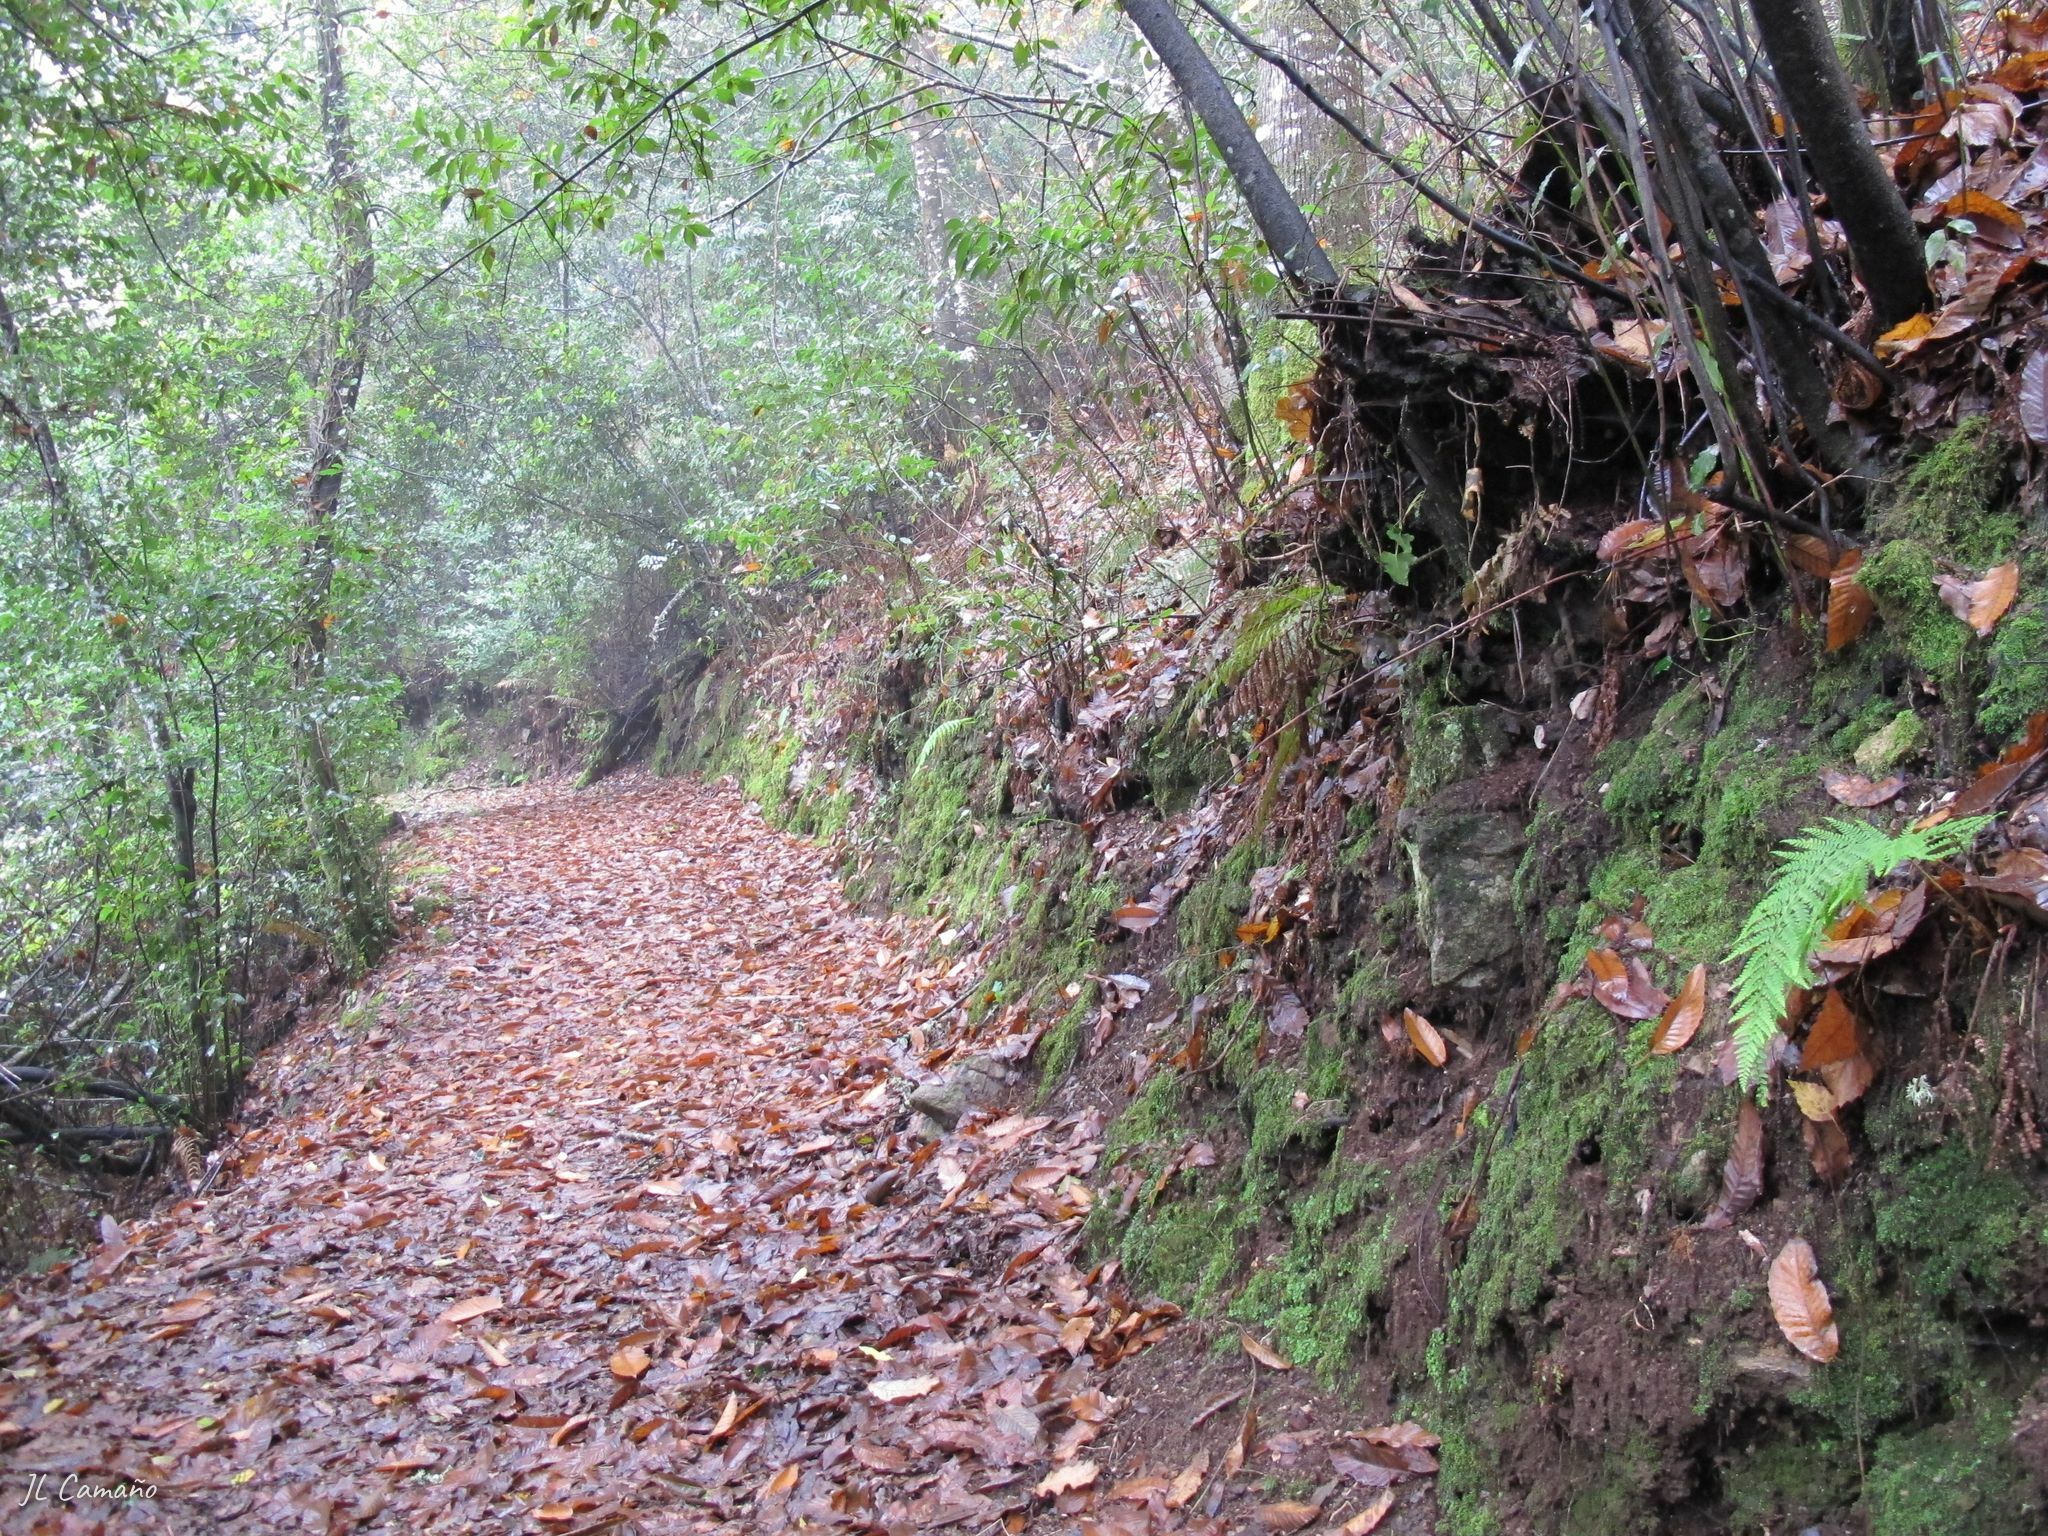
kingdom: Plantae
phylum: Marchantiophyta
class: Marchantiopsida
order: Lunulariales
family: Lunulariaceae
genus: Lunularia
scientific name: Lunularia cruciata
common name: Crescent-cup liverwort
